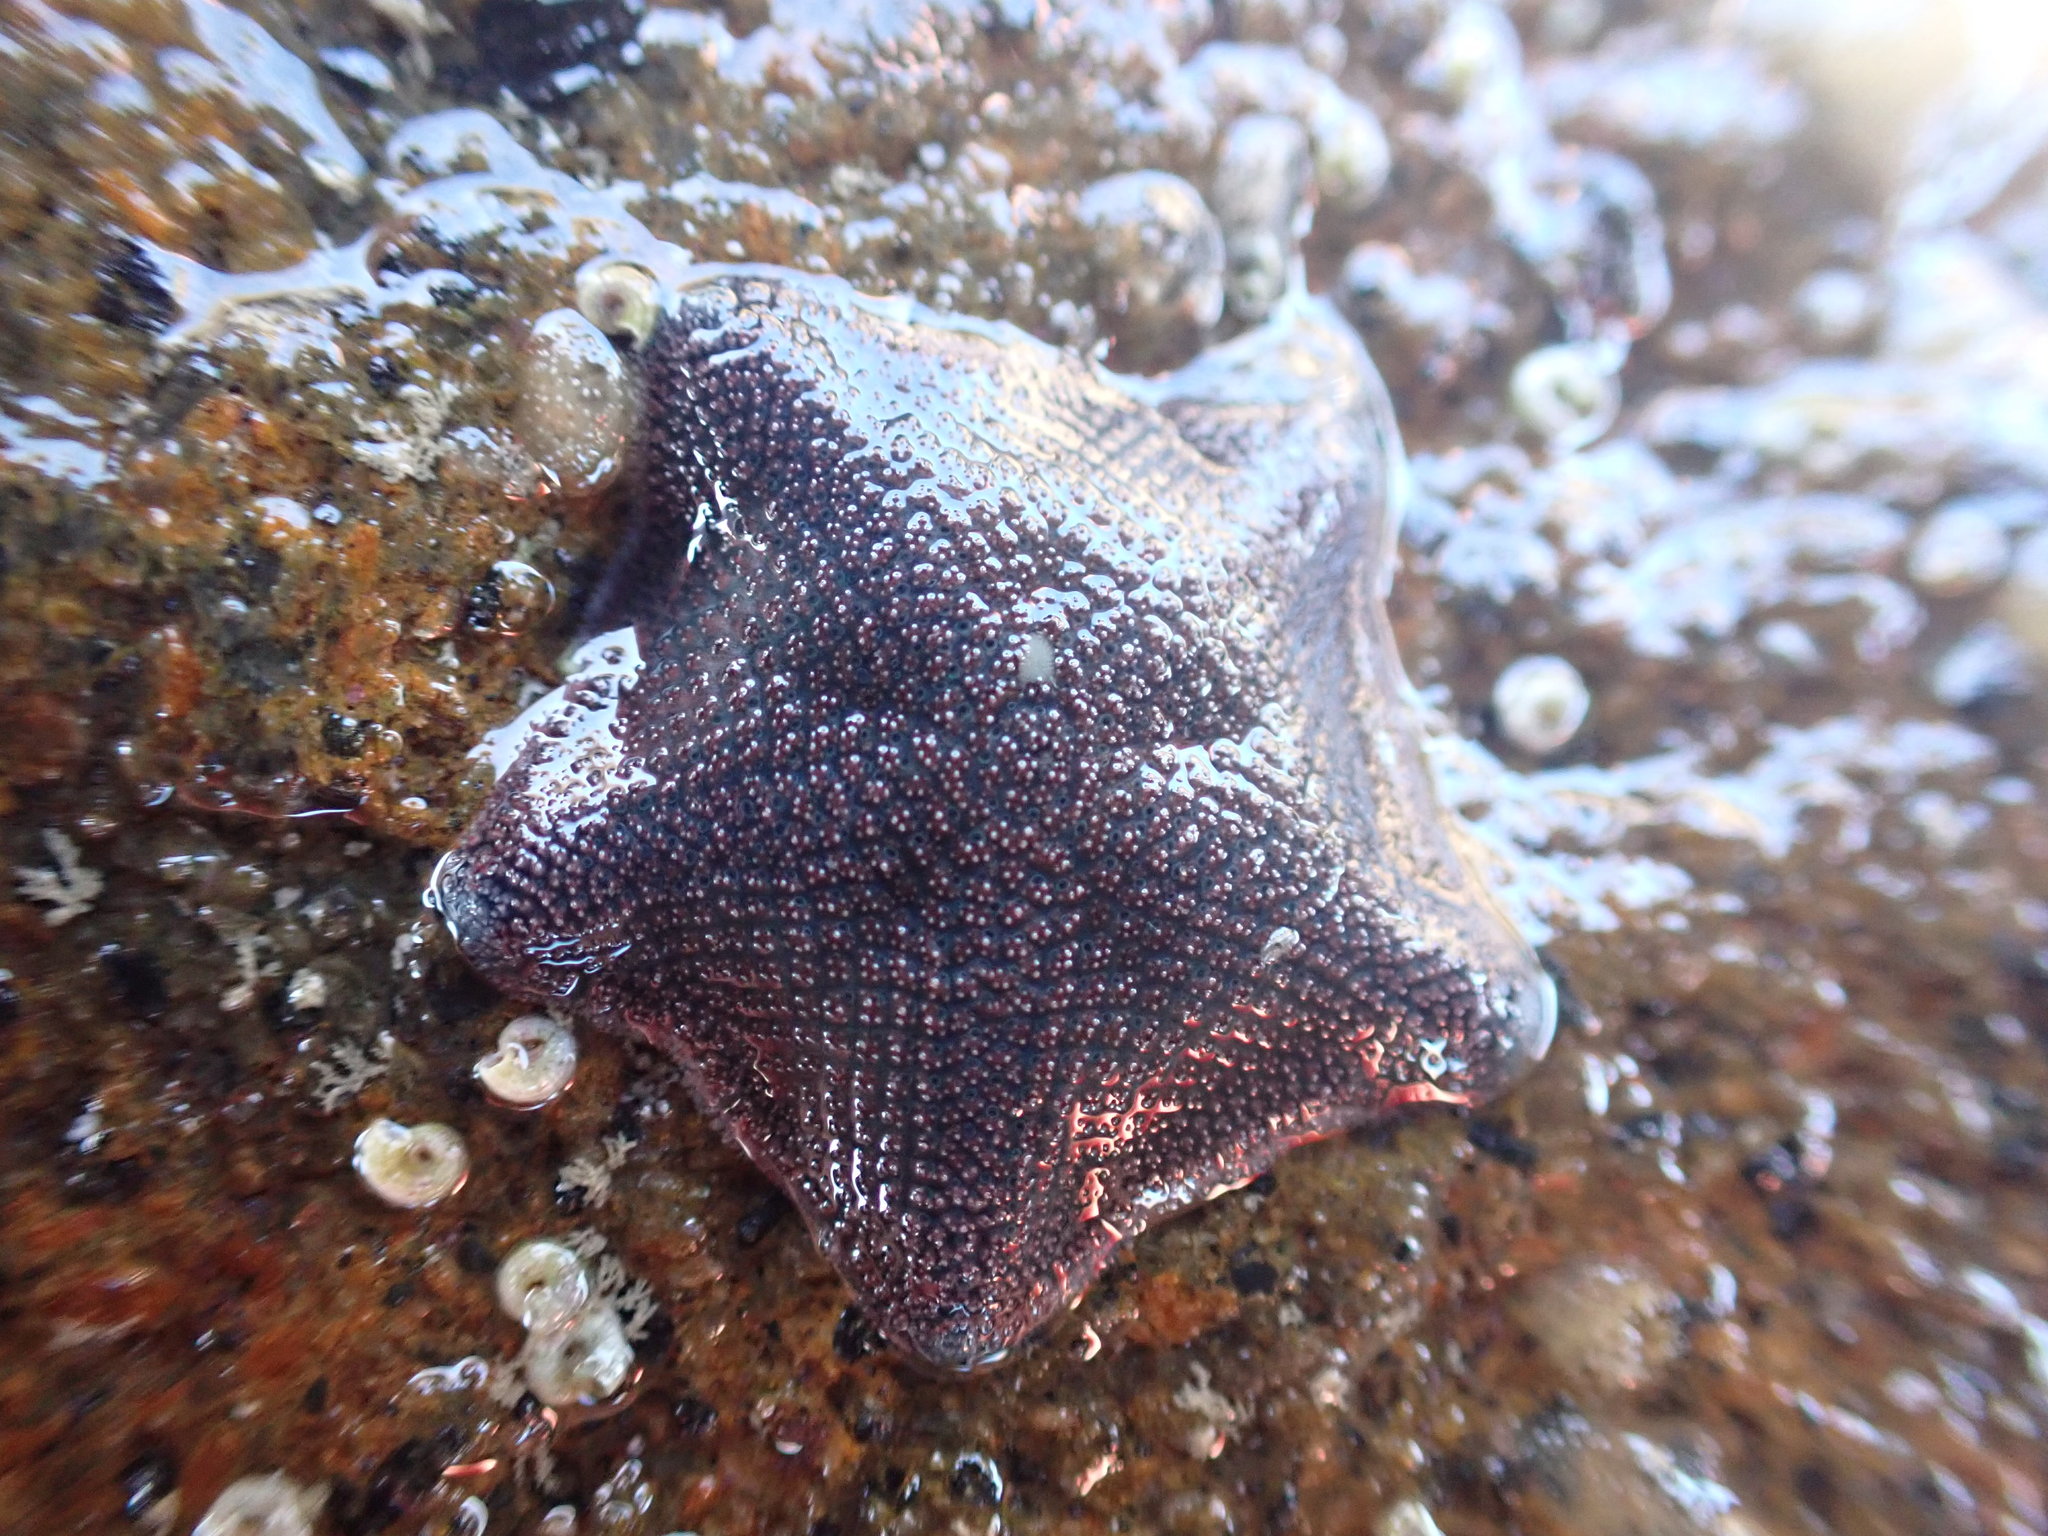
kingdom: Animalia
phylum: Echinodermata
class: Asteroidea
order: Valvatida
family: Asterinidae
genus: Patiriella
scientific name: Patiriella regularis
